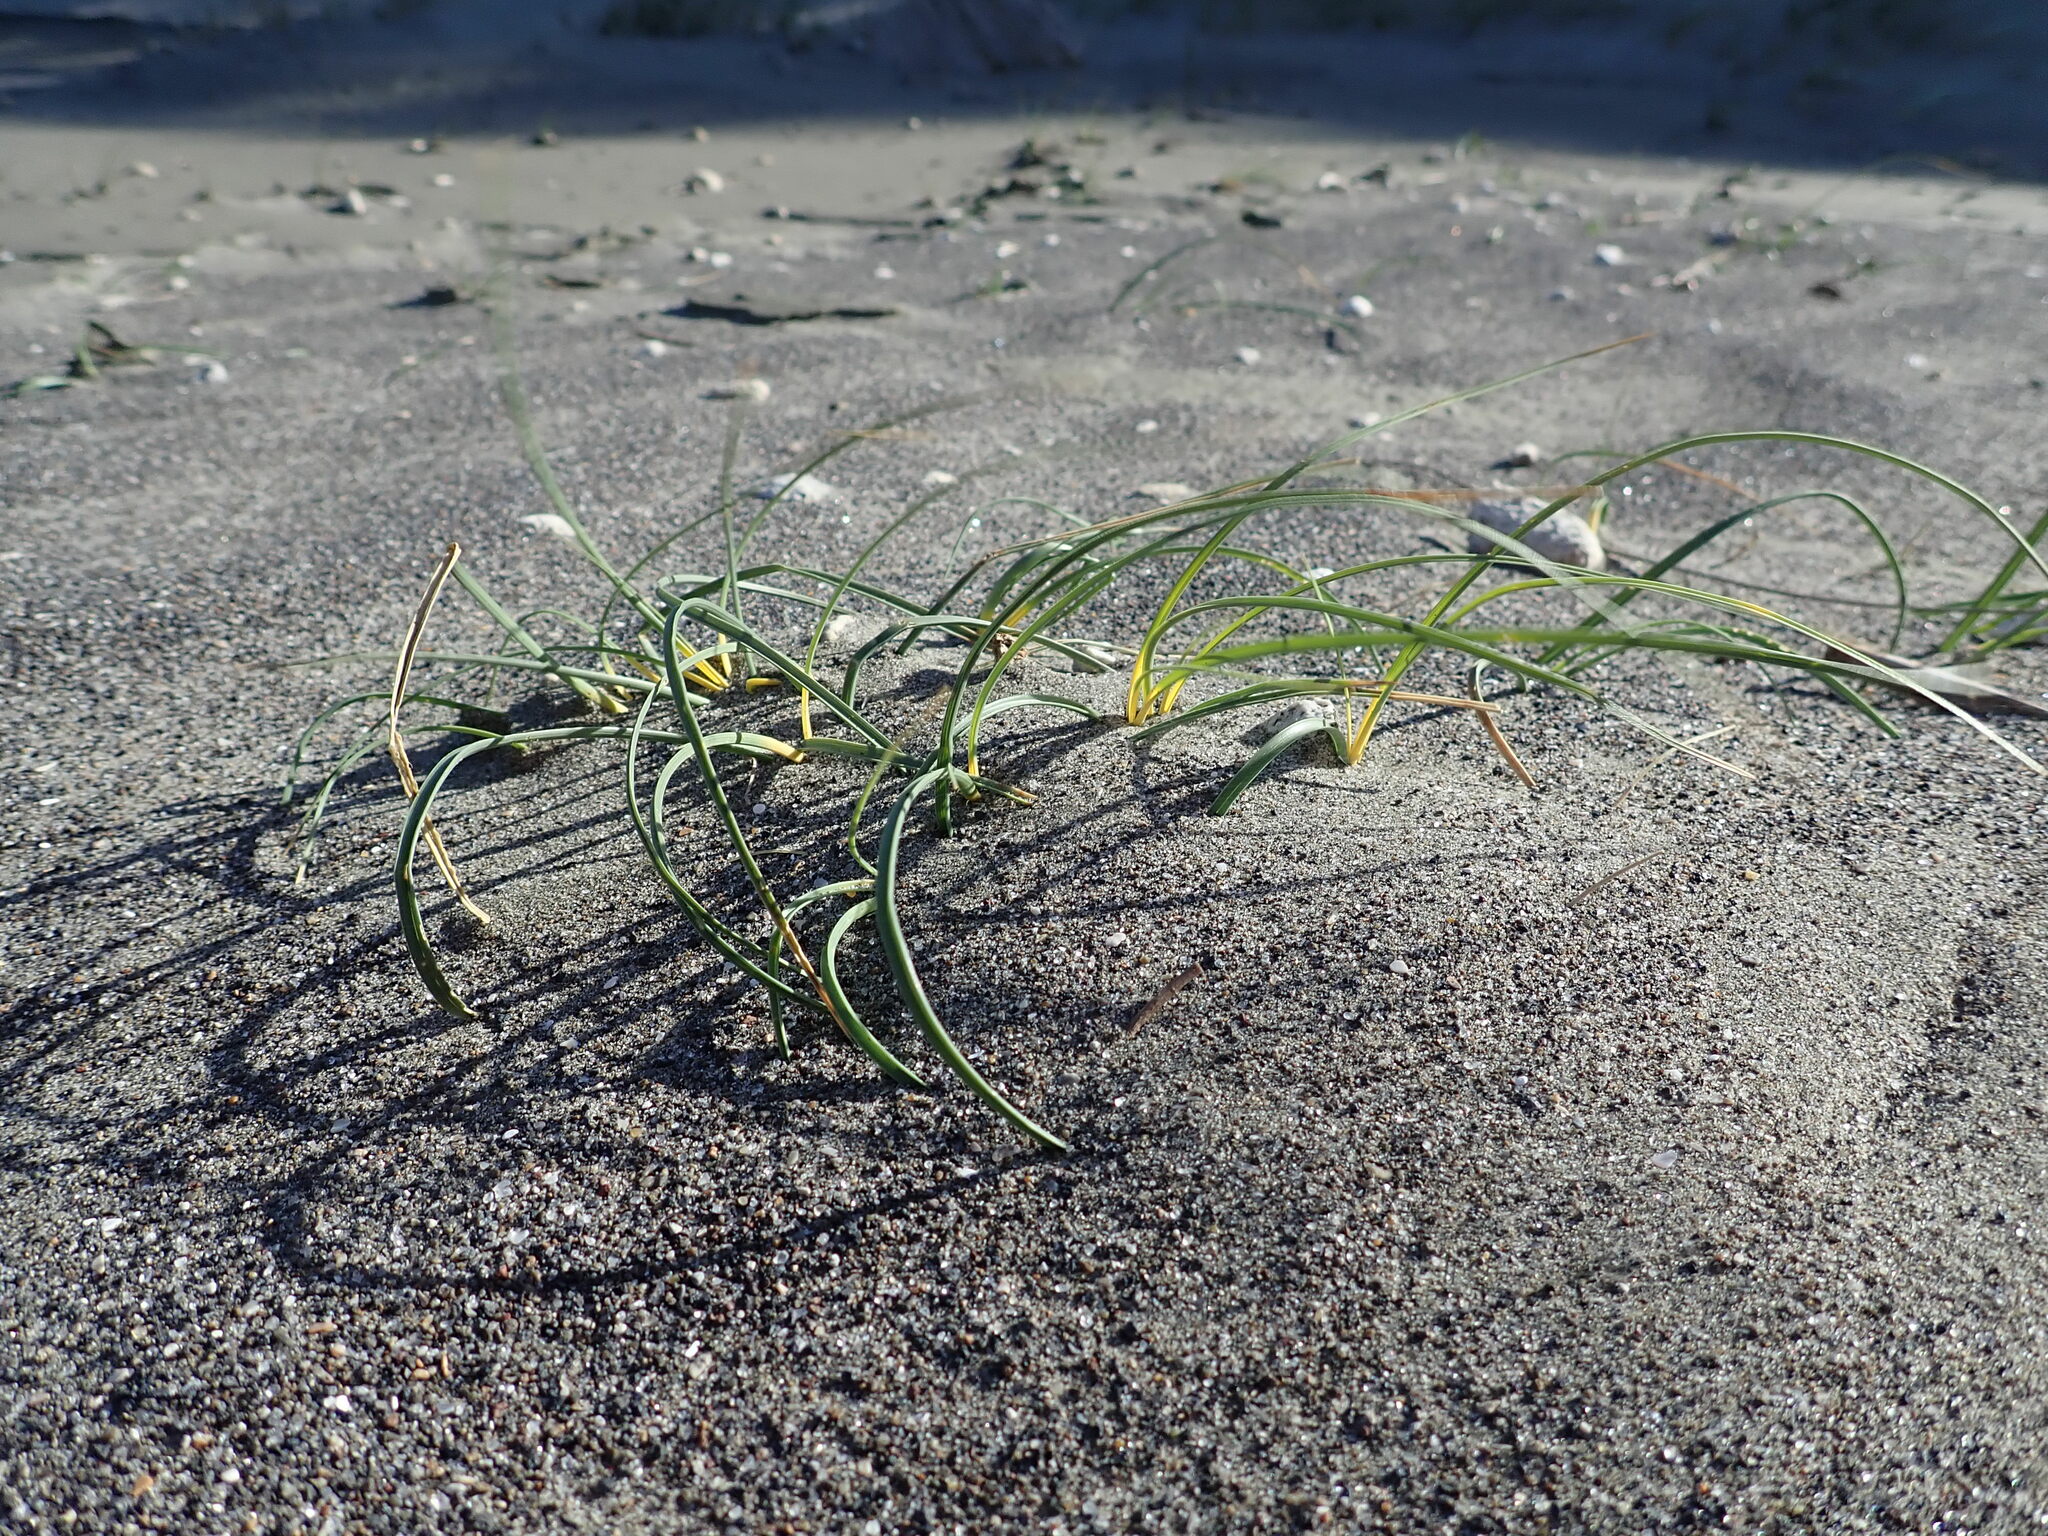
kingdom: Plantae
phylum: Tracheophyta
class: Liliopsida
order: Poales
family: Cyperaceae
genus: Carex
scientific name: Carex pumila
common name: Dwarf sedge
